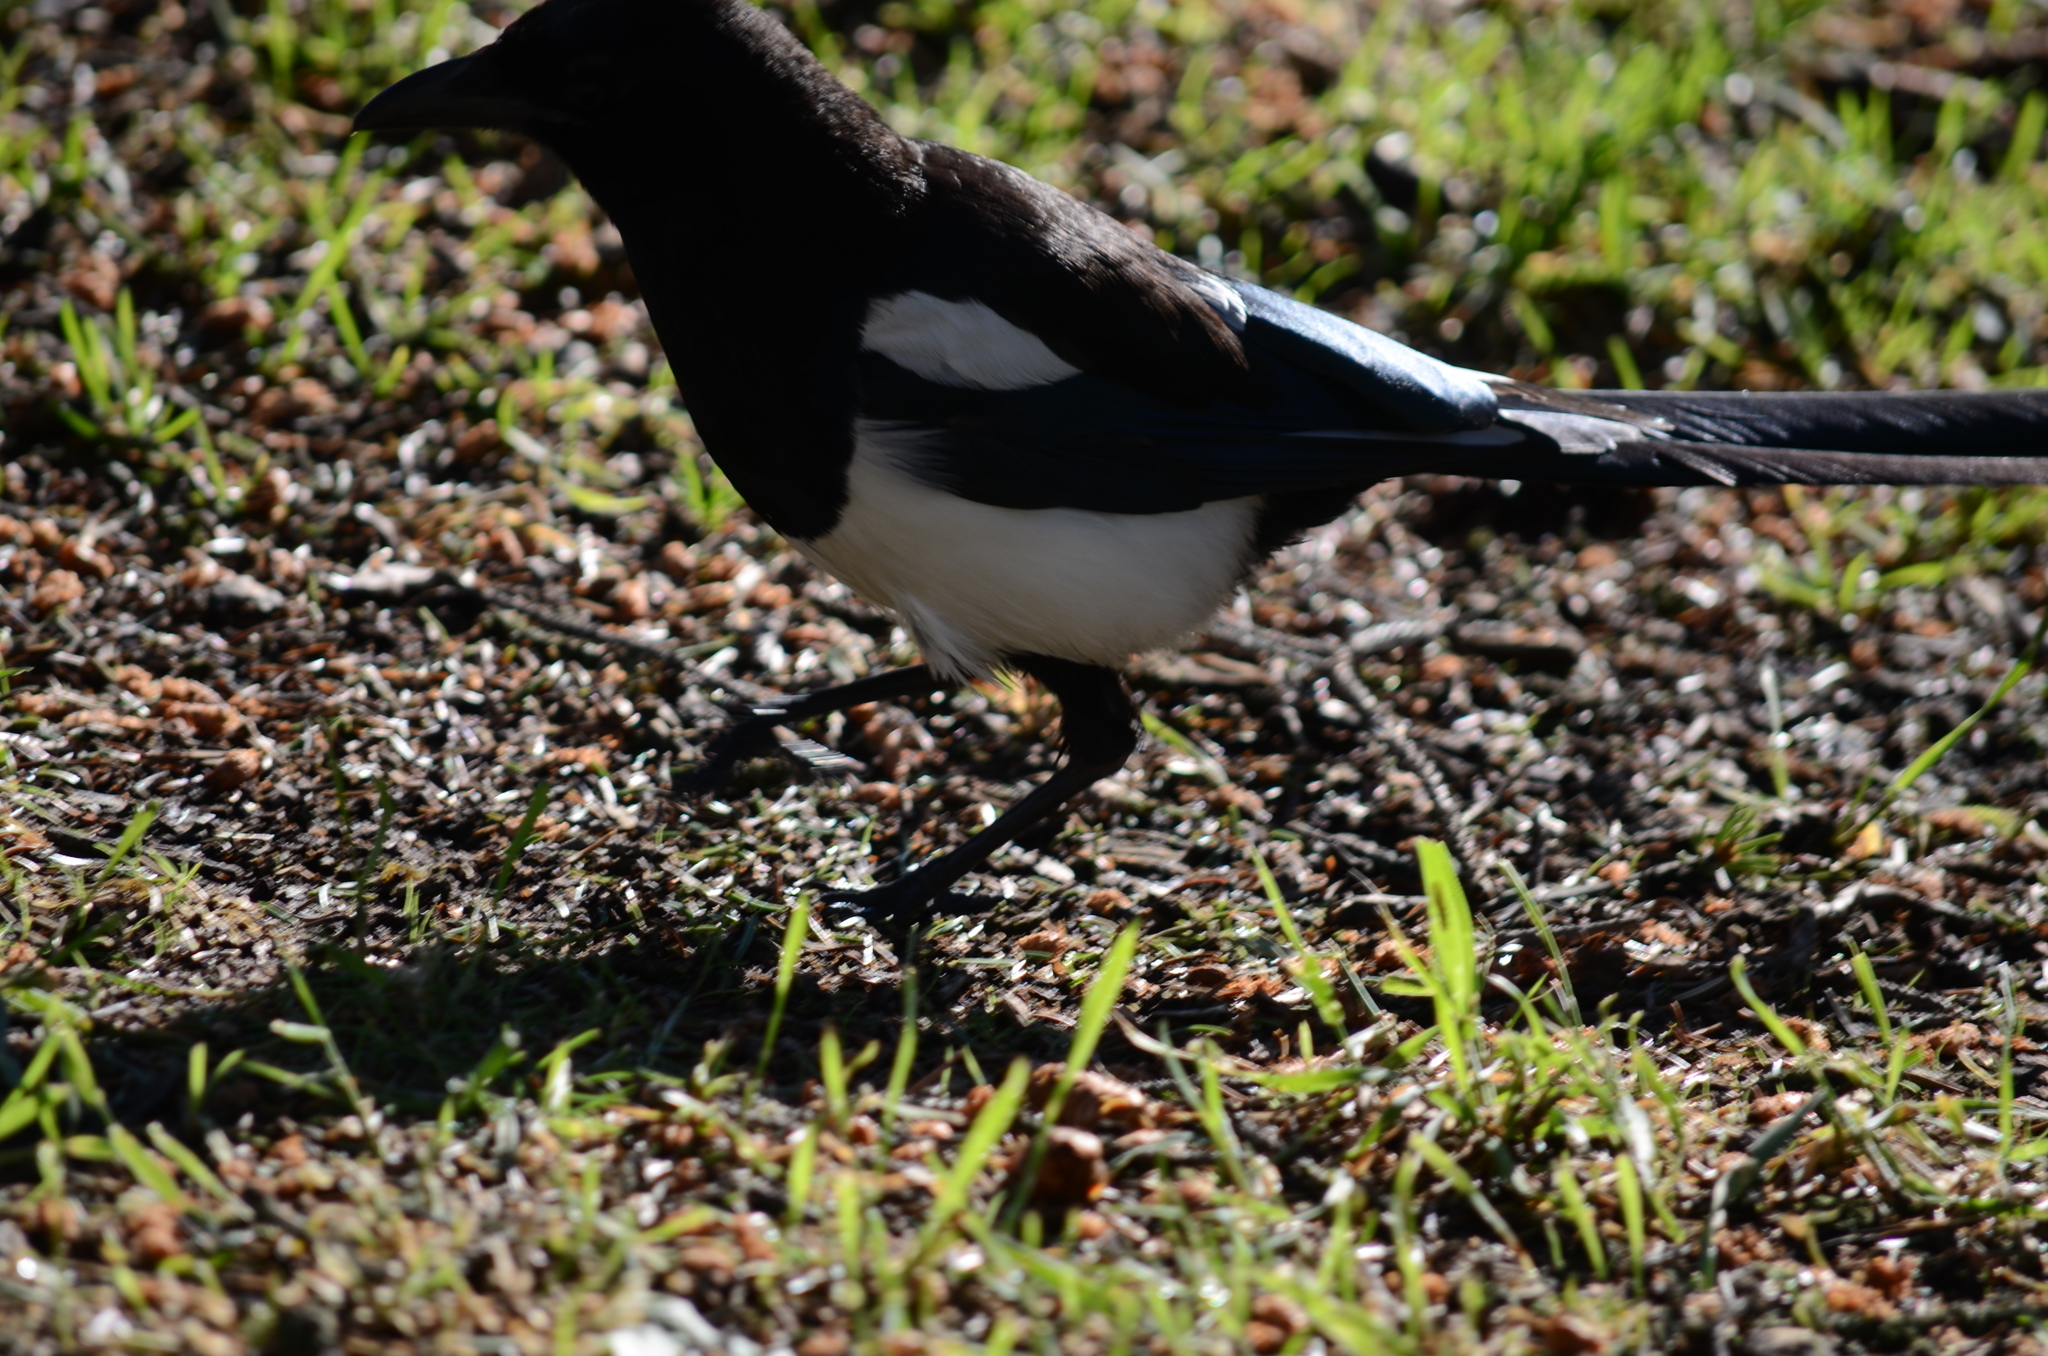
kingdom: Animalia
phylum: Chordata
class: Aves
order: Passeriformes
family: Corvidae
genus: Pica
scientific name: Pica hudsonia
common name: Black-billed magpie
